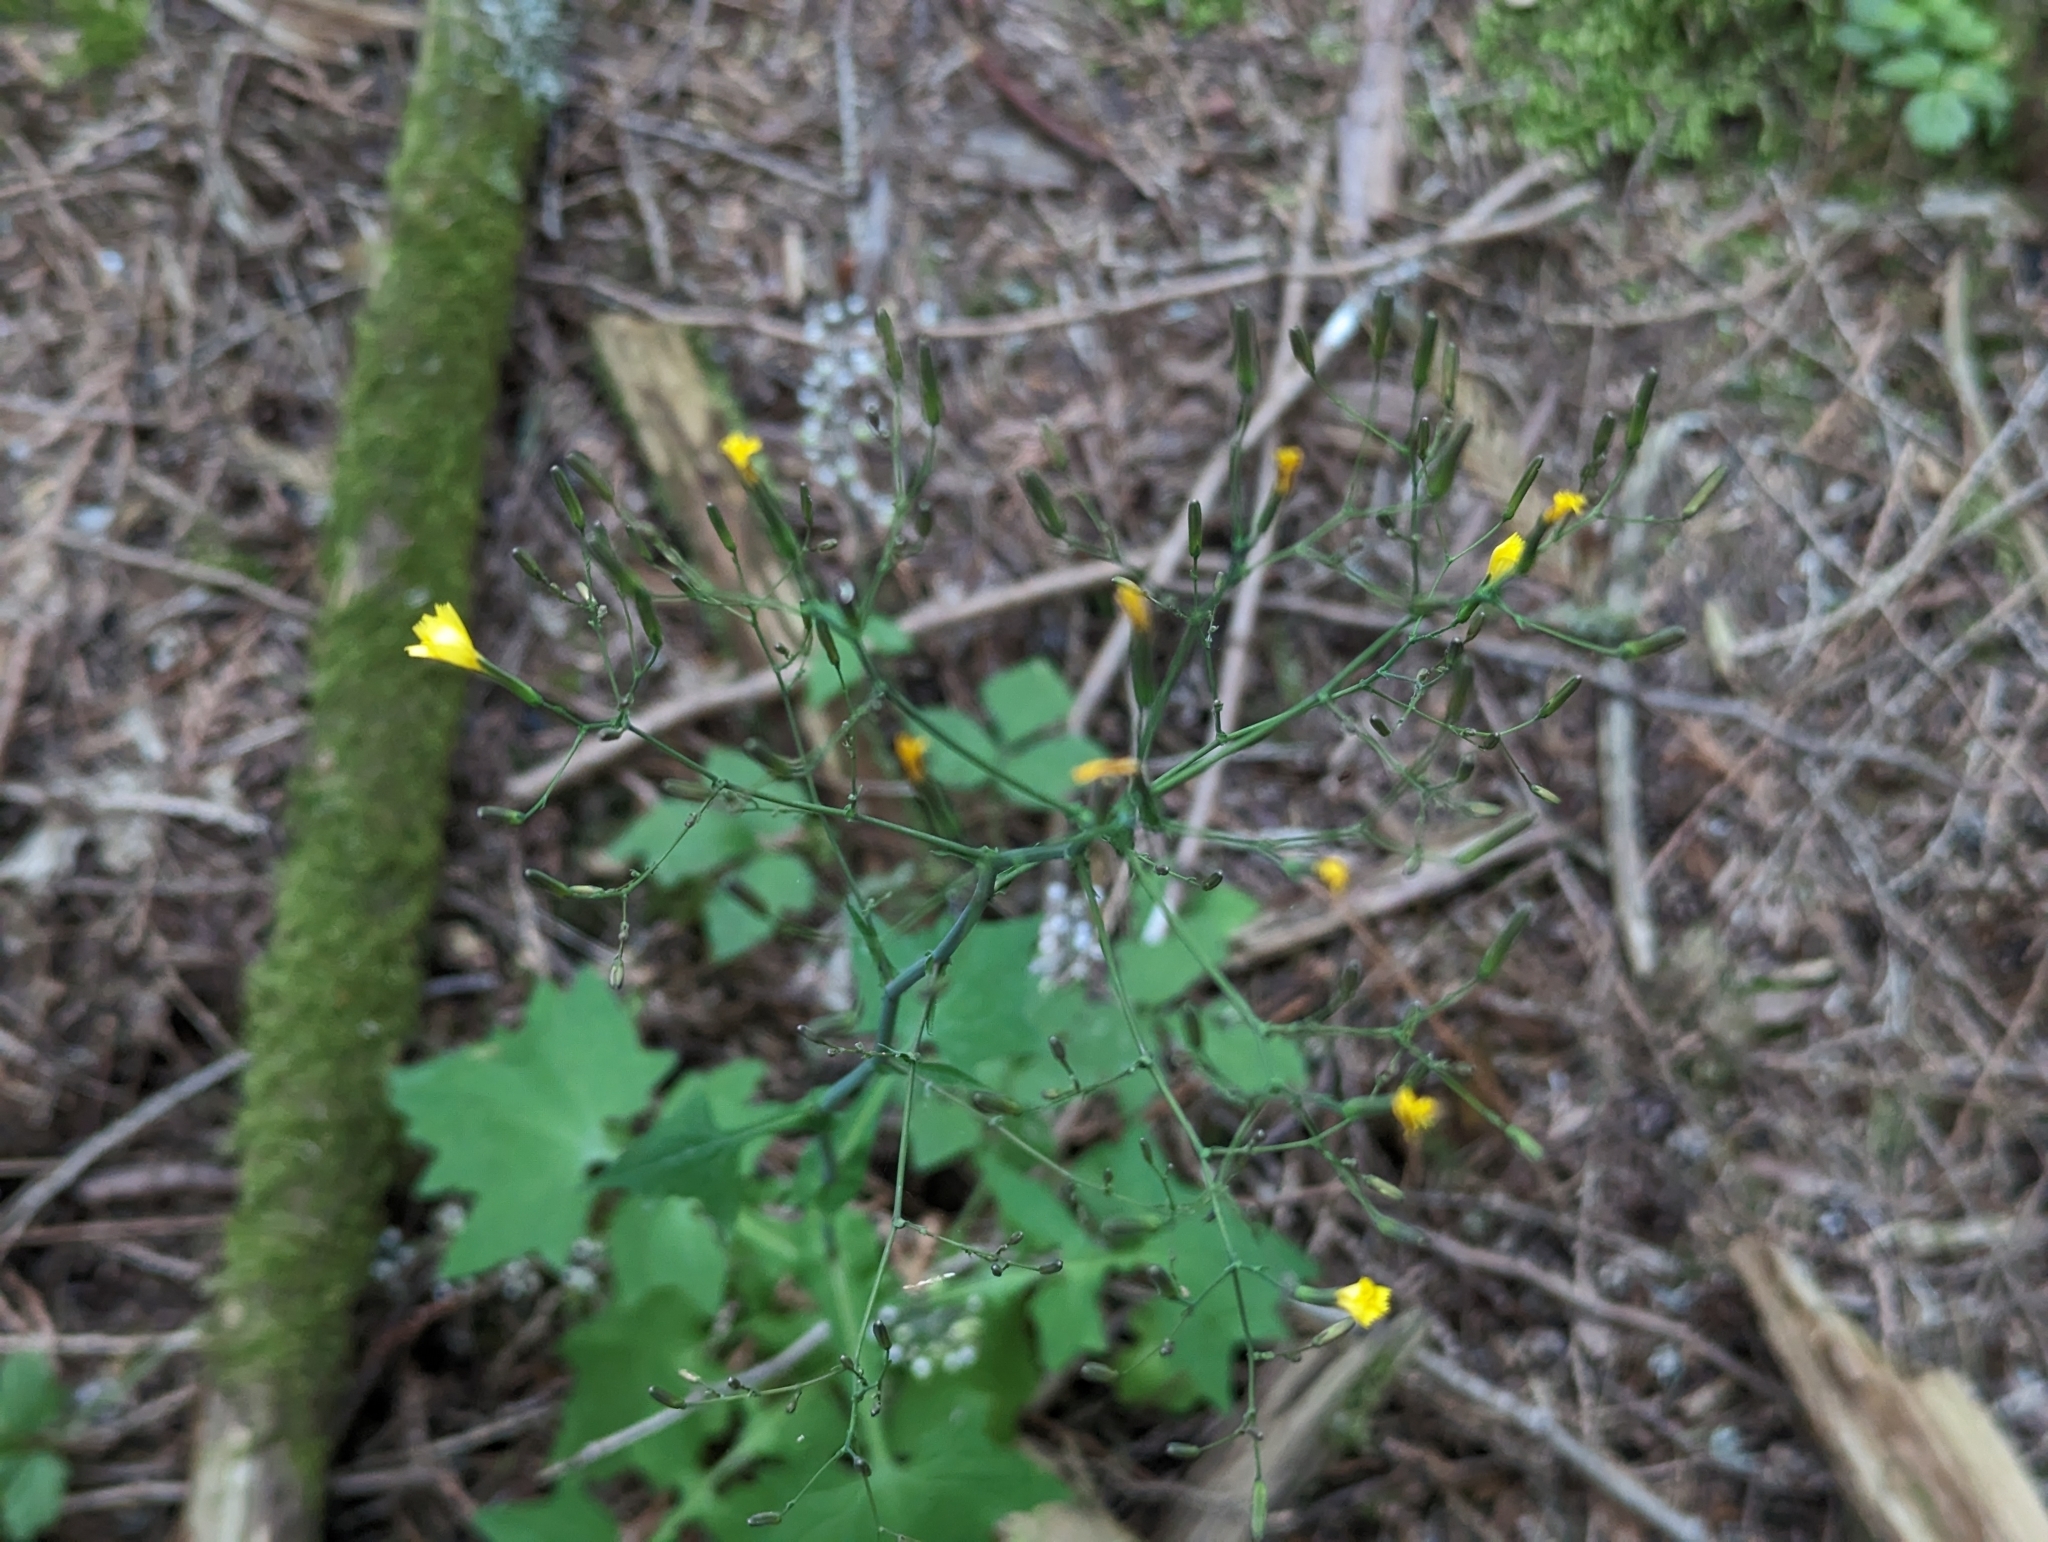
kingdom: Plantae
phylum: Tracheophyta
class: Magnoliopsida
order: Asterales
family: Asteraceae
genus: Mycelis
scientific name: Mycelis muralis
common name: Wall lettuce
